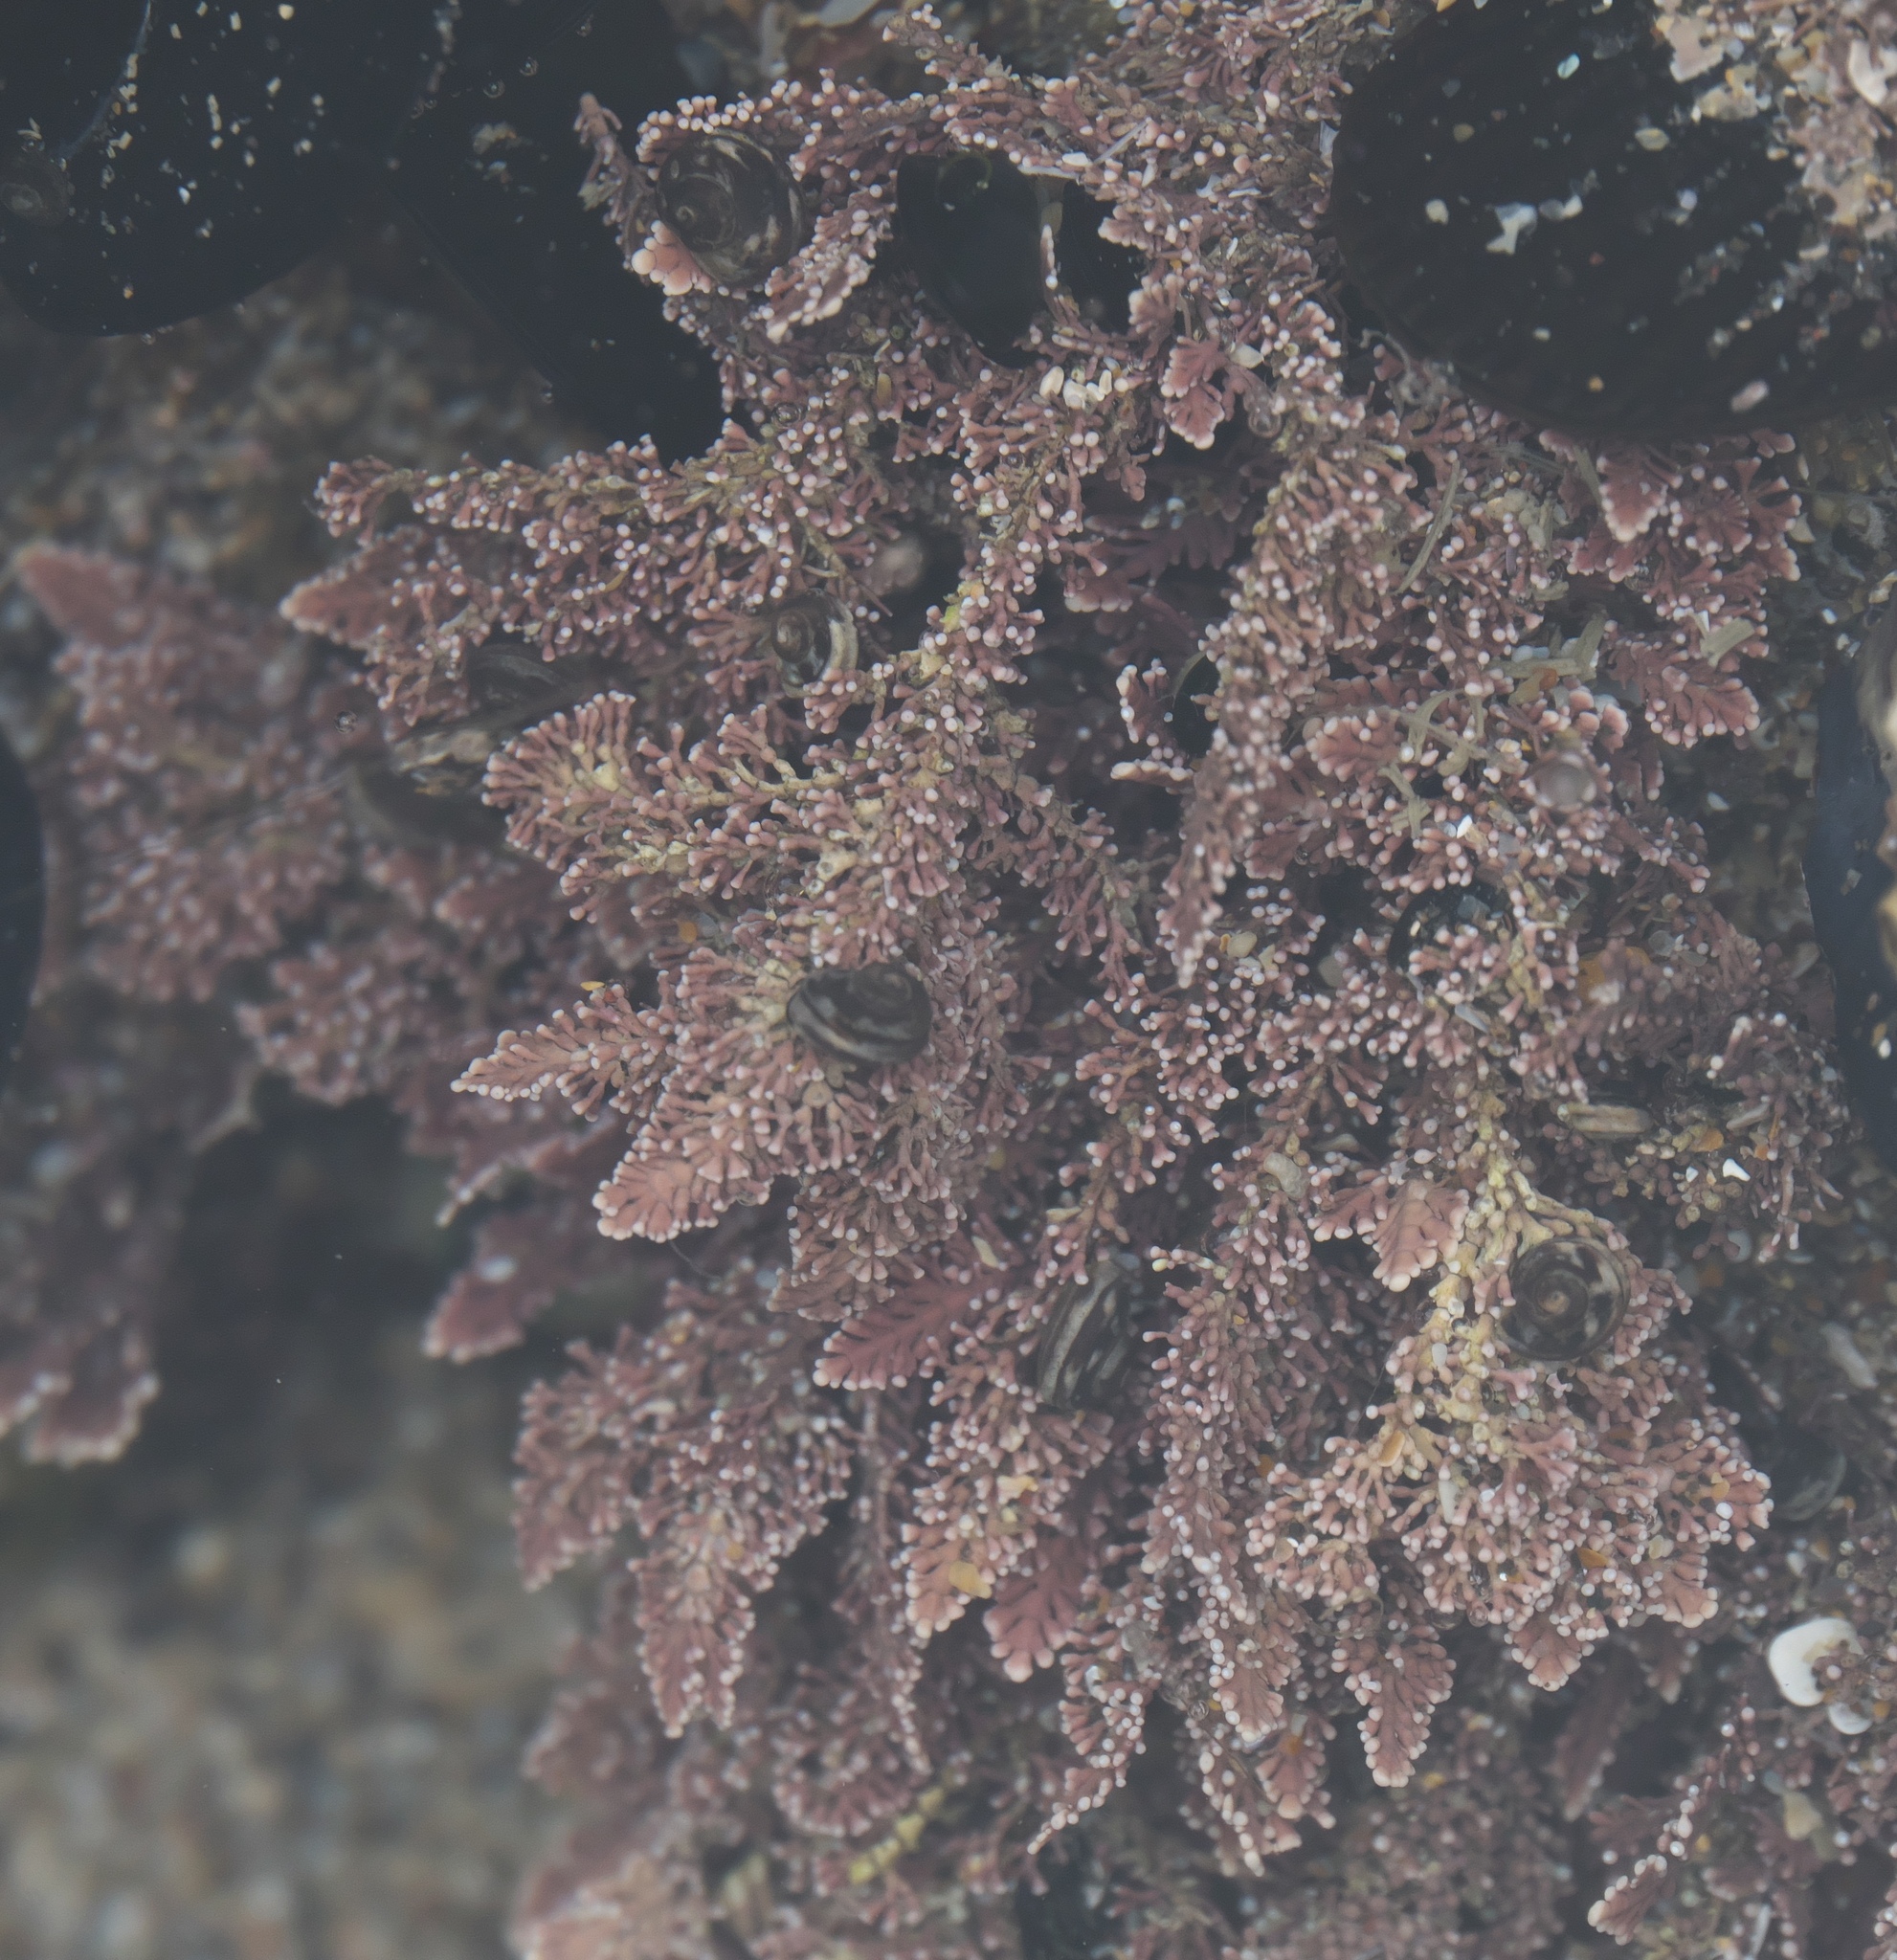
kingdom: Plantae
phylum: Rhodophyta
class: Florideophyceae
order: Corallinales
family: Corallinaceae
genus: Corallina
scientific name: Corallina officinalis
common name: Coral weed
